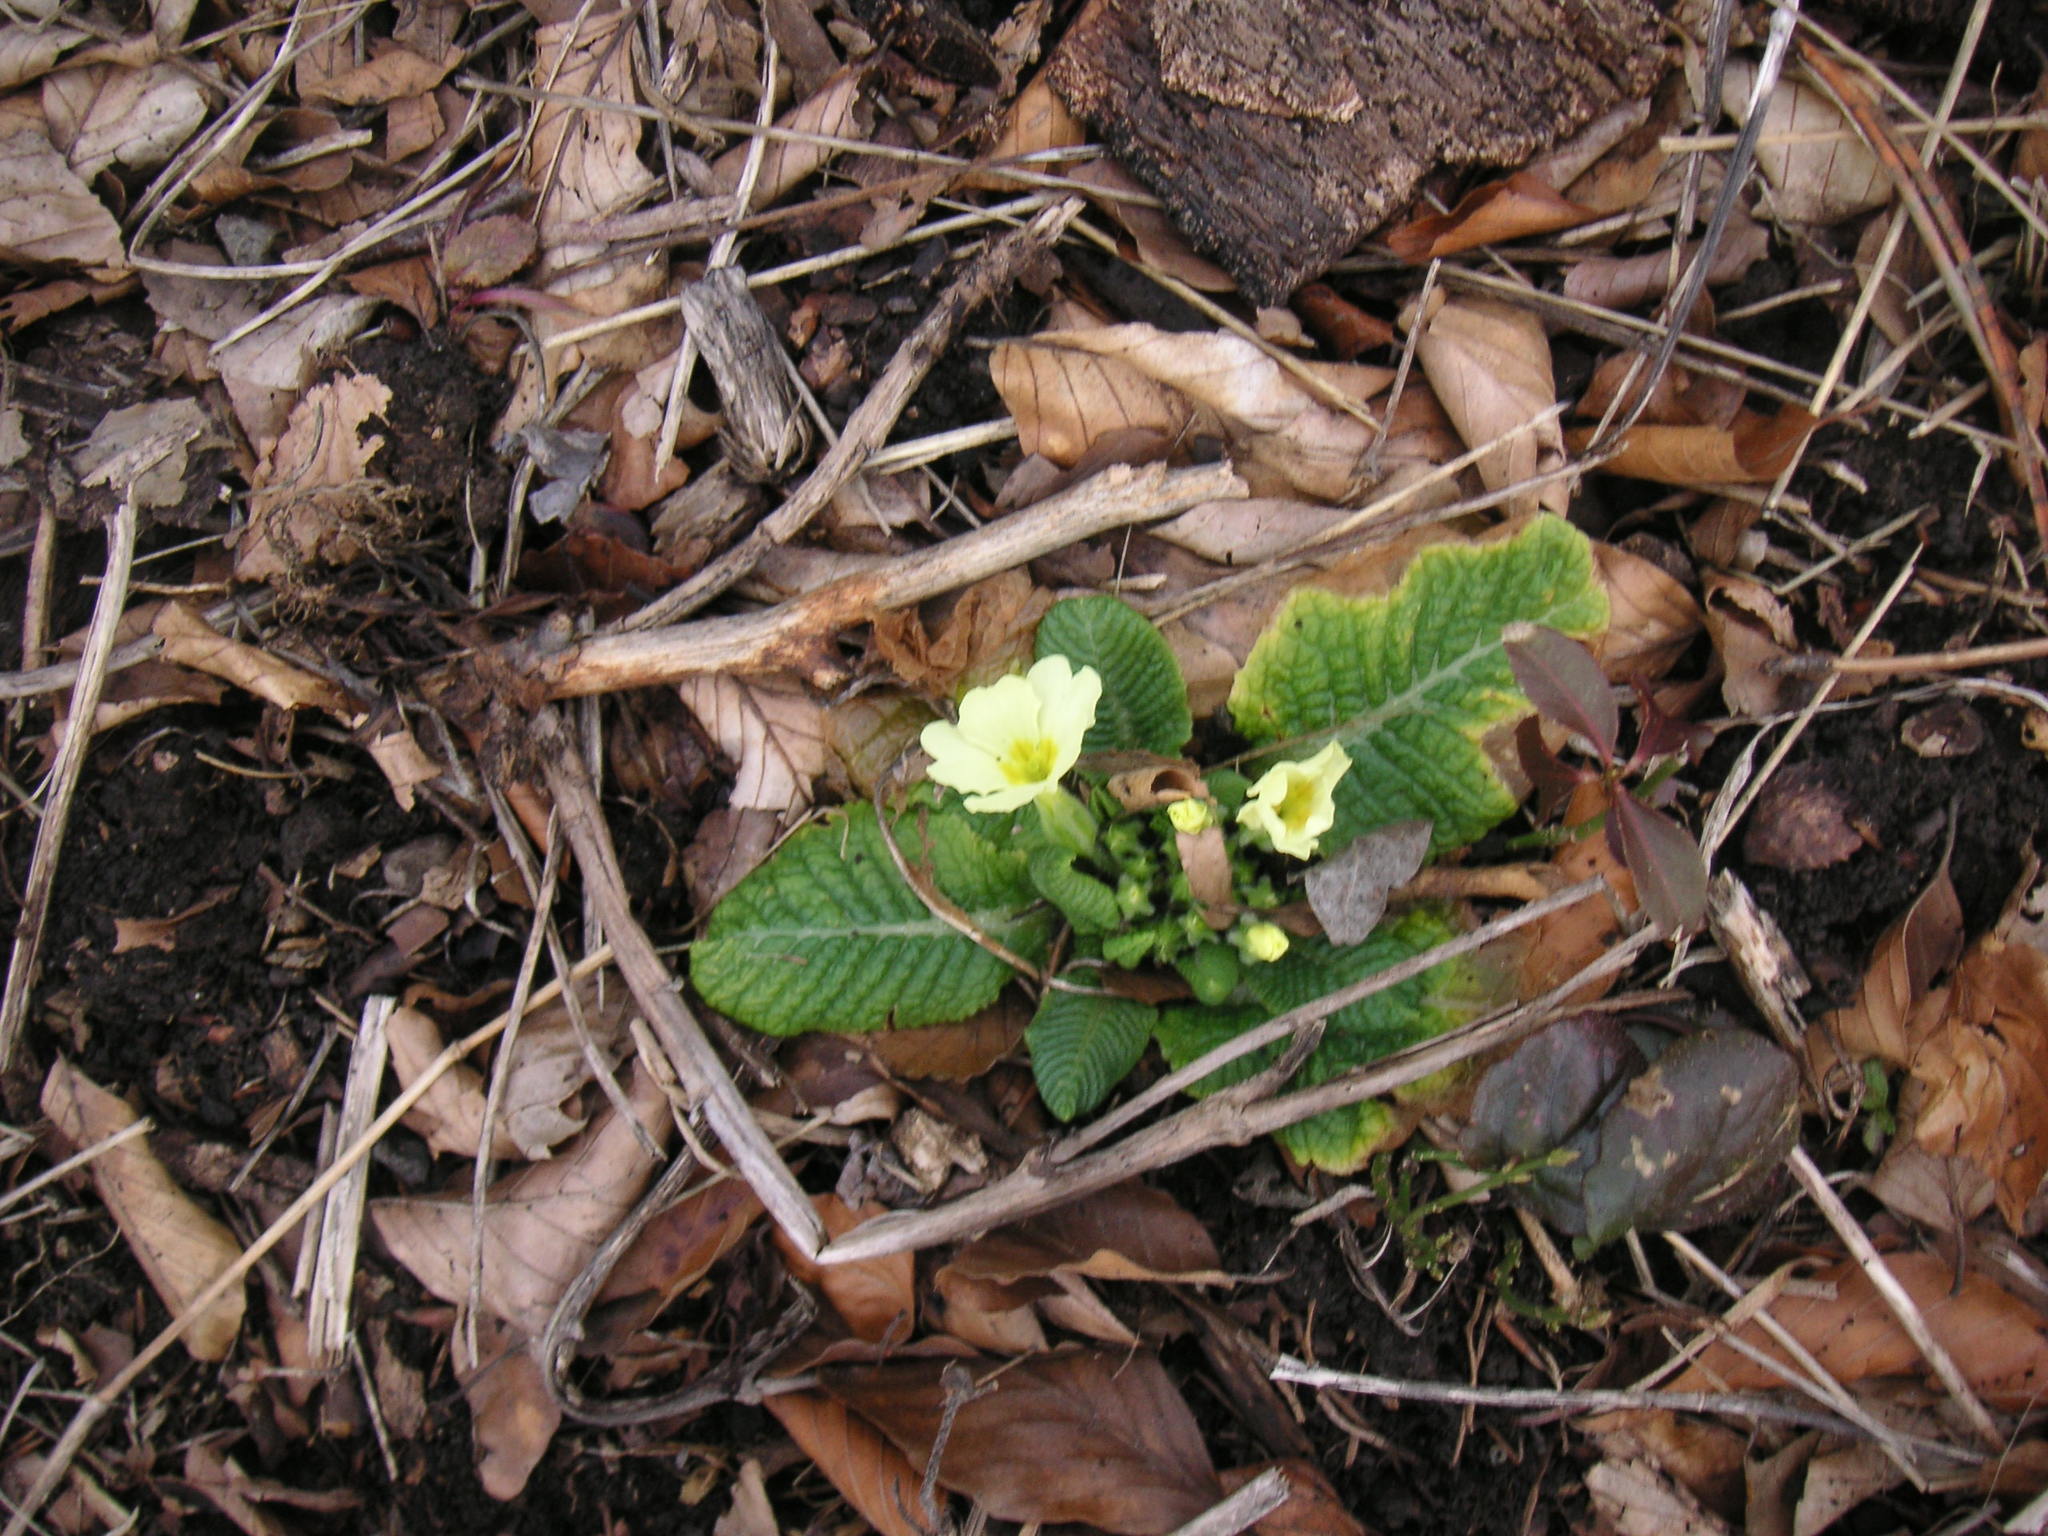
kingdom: Plantae
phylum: Tracheophyta
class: Magnoliopsida
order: Ericales
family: Primulaceae
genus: Primula
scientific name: Primula vulgaris
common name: Primrose
